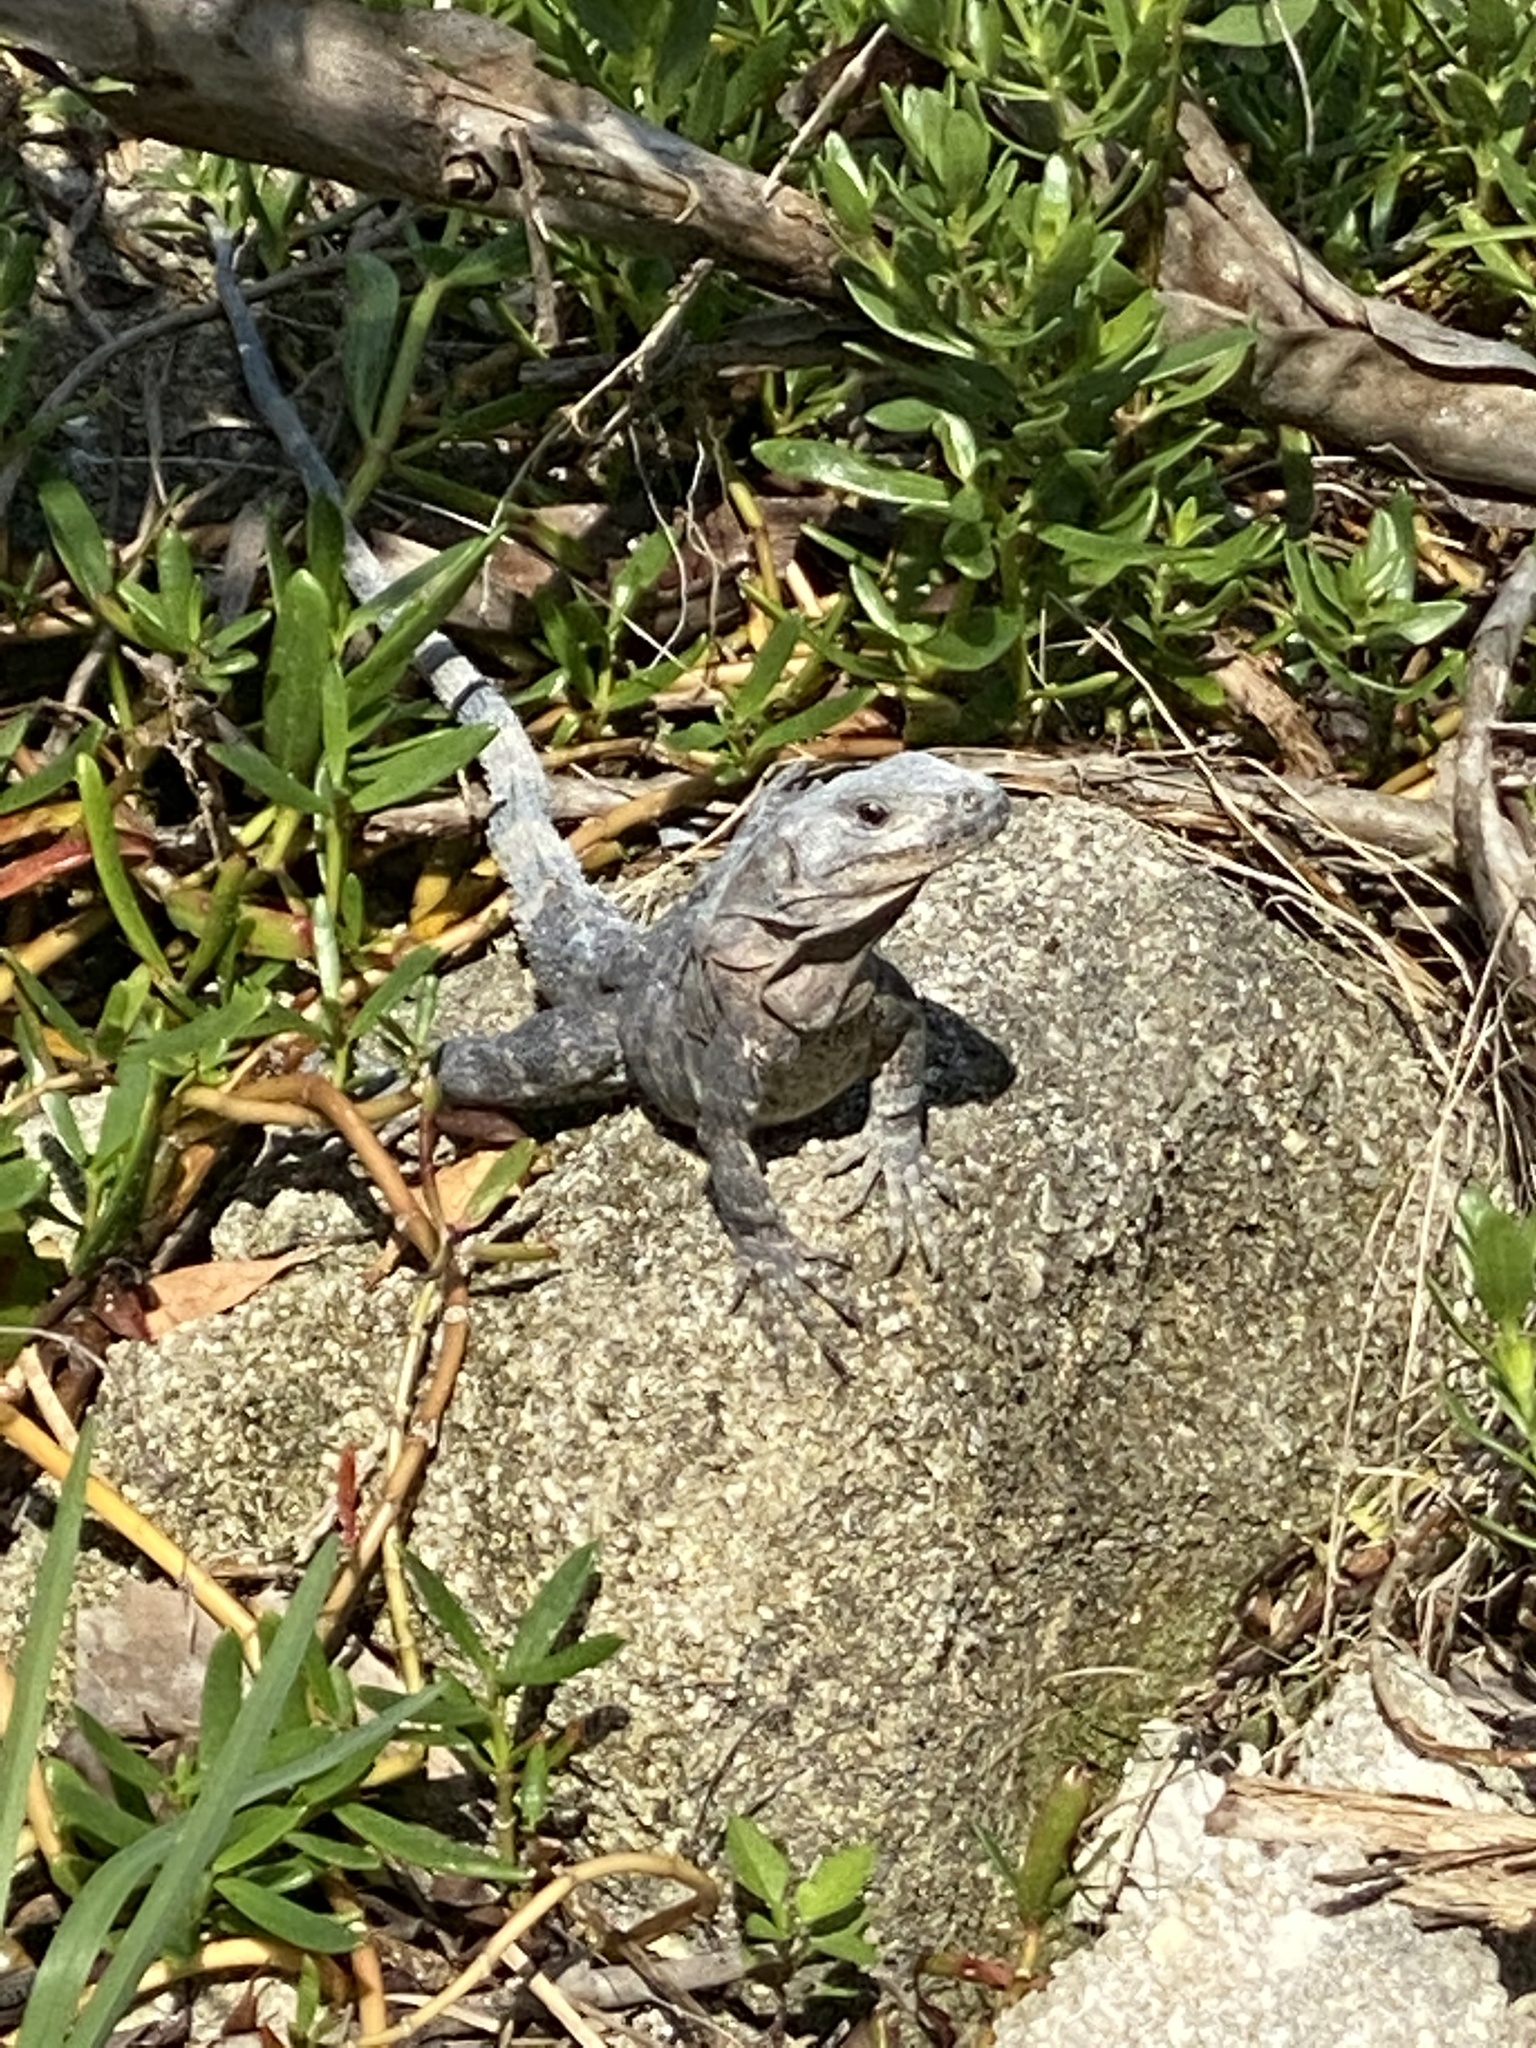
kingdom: Animalia
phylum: Chordata
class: Squamata
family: Iguanidae
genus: Ctenosaura
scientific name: Ctenosaura similis
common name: Black spiny-tailed iguana
